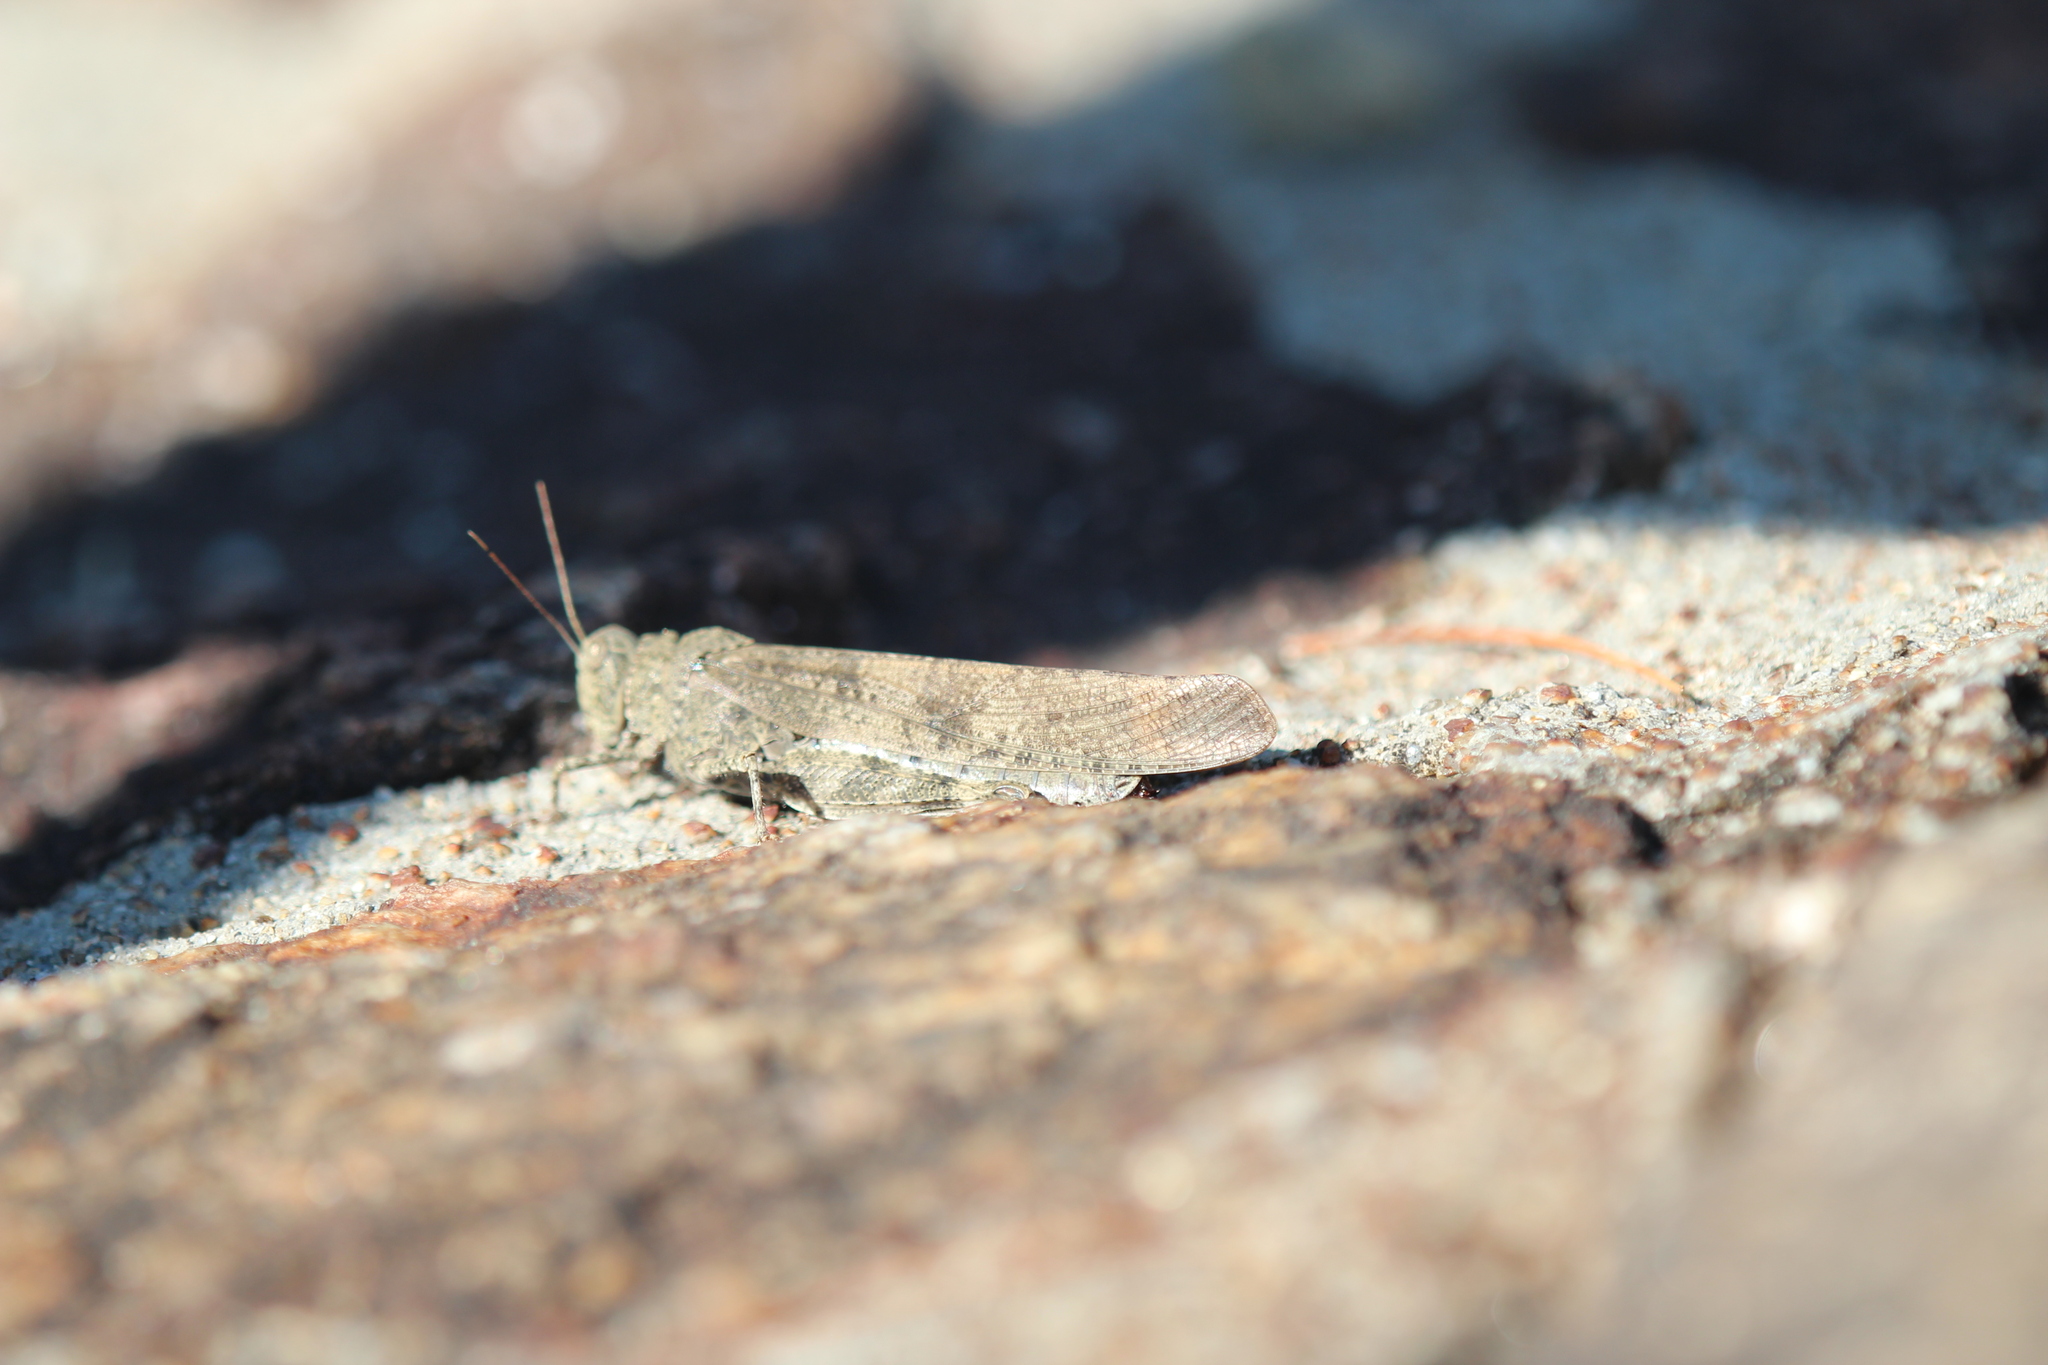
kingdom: Animalia
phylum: Arthropoda
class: Insecta
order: Orthoptera
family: Acrididae
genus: Dissosteira
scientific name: Dissosteira carolina
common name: Carolina grasshopper
